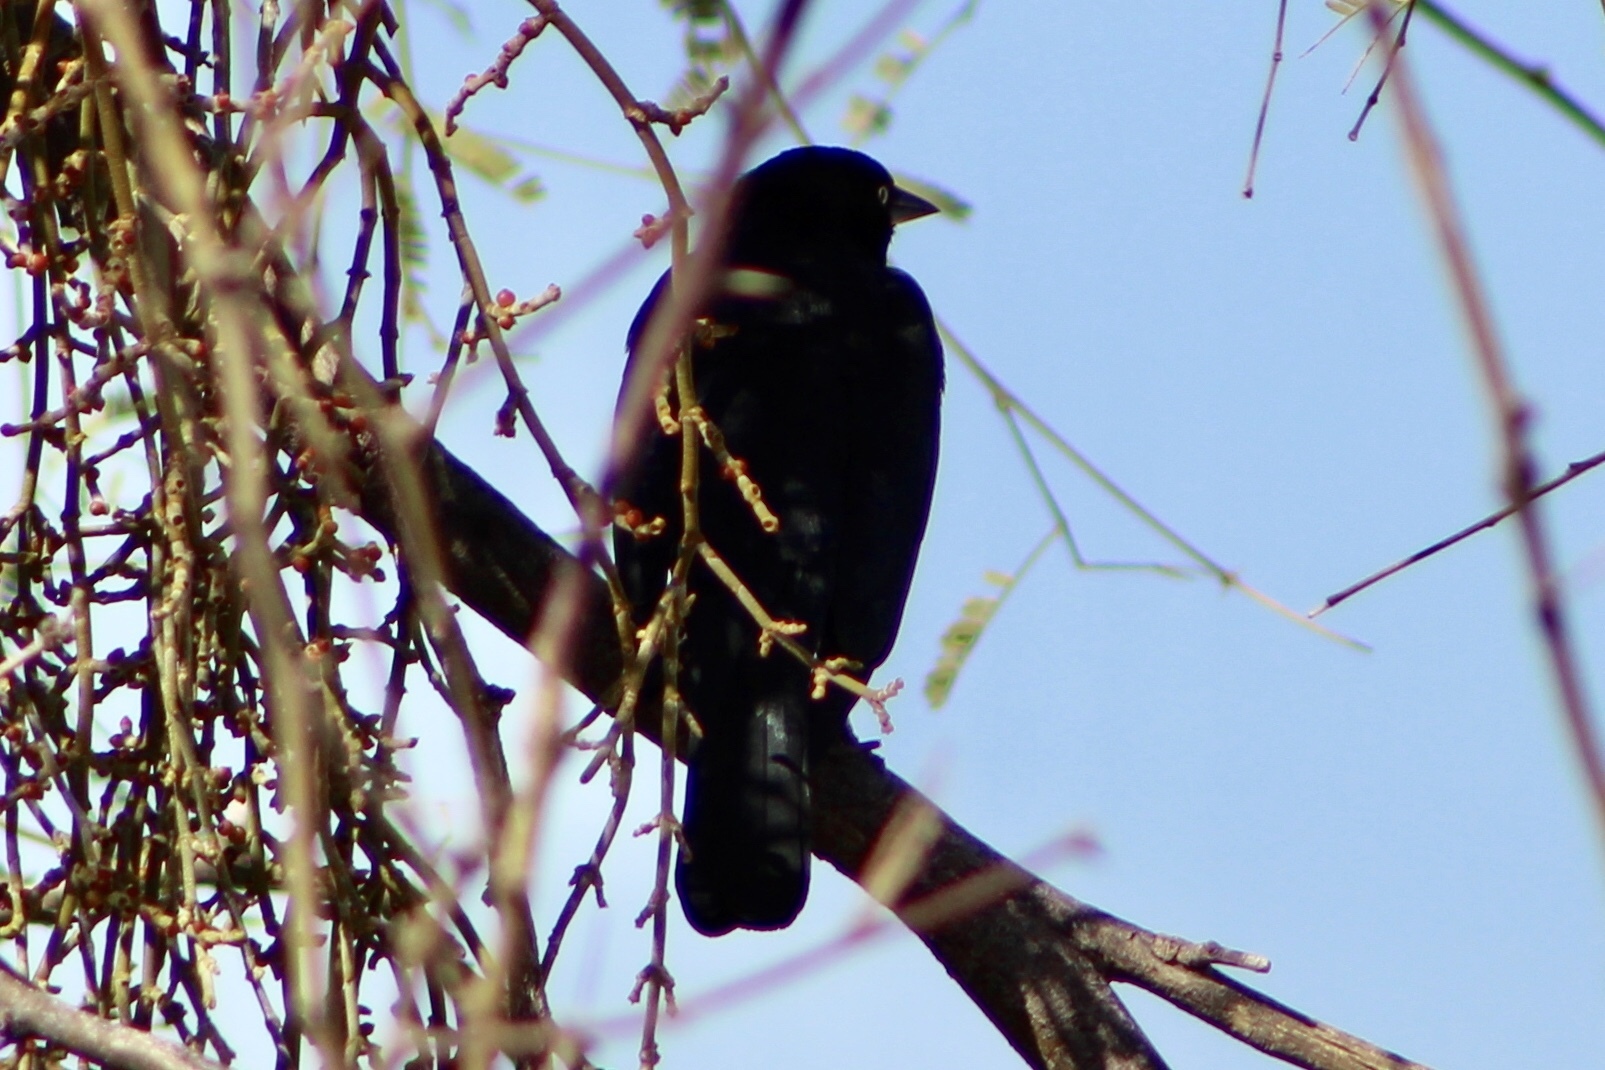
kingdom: Animalia
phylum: Chordata
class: Aves
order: Passeriformes
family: Icteridae
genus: Euphagus
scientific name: Euphagus cyanocephalus
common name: Brewer's blackbird
